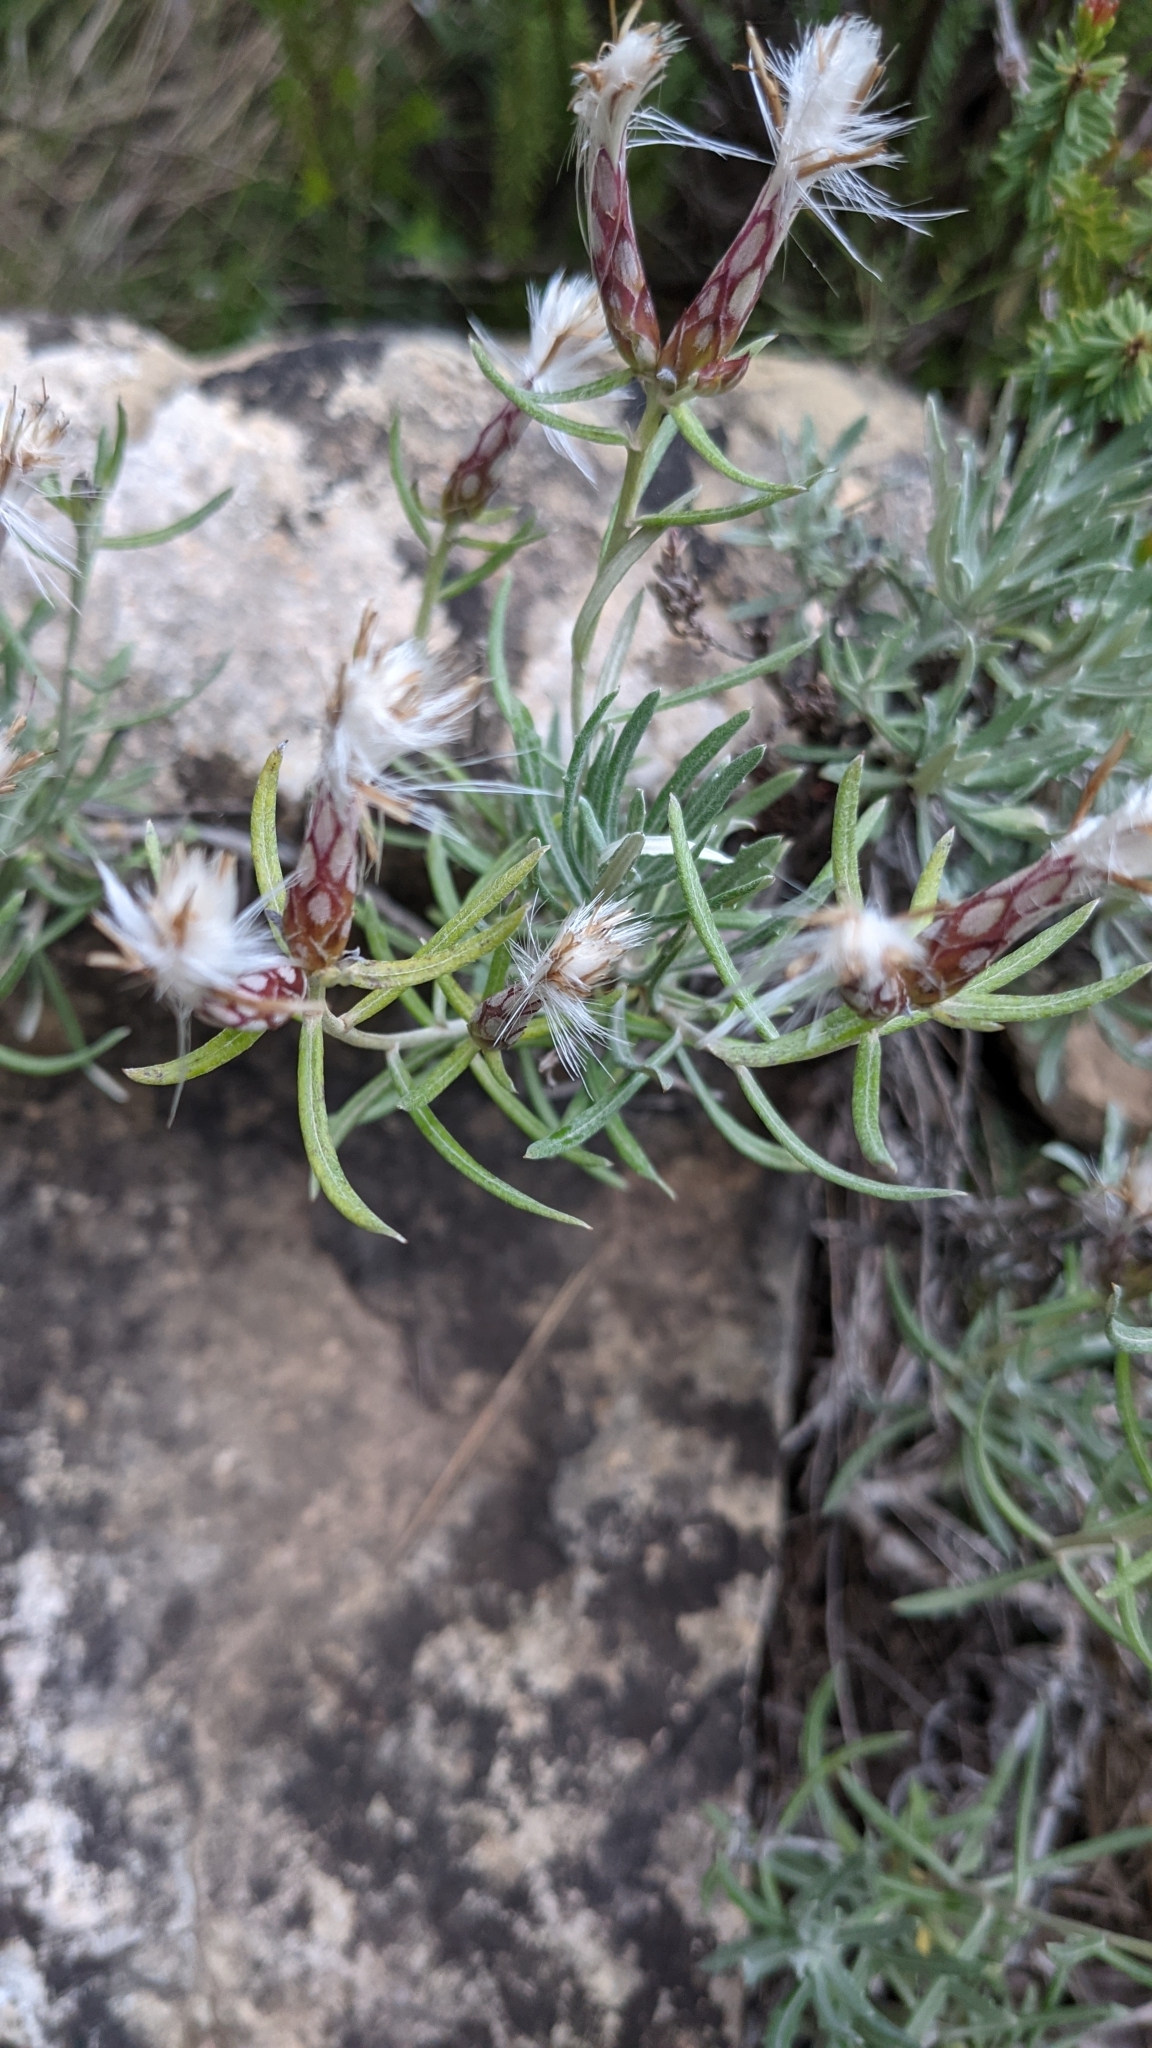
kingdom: Plantae
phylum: Tracheophyta
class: Magnoliopsida
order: Asterales
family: Asteraceae
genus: Staehelina
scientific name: Staehelina dubia
